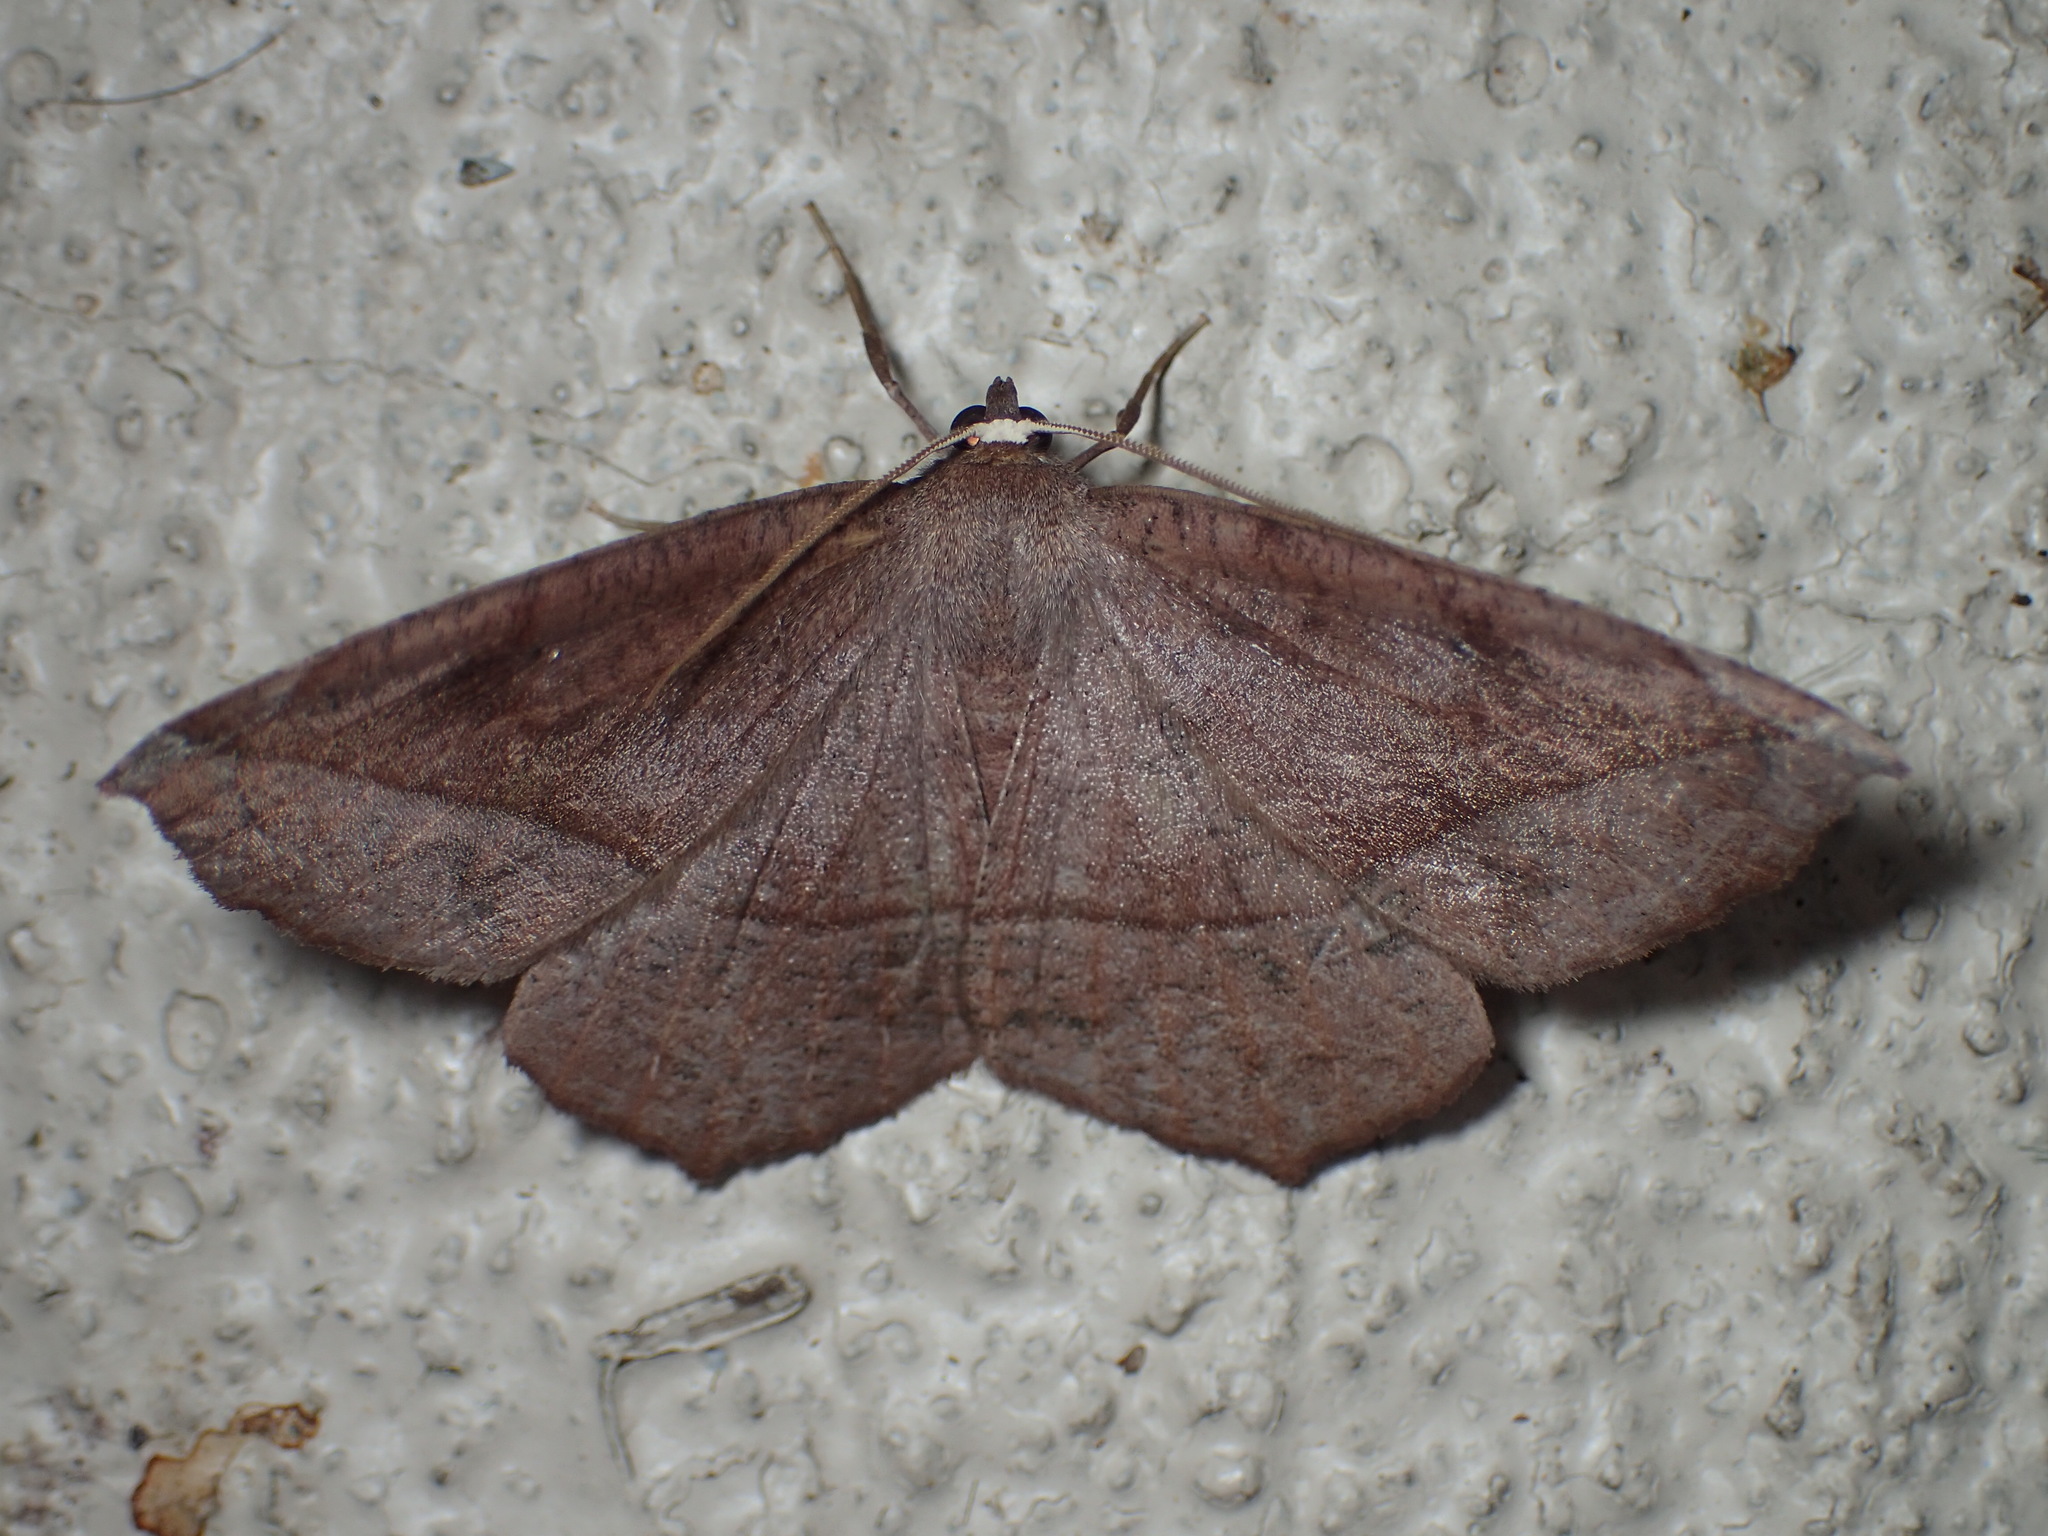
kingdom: Animalia
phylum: Arthropoda
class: Insecta
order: Lepidoptera
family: Geometridae
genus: Eutrapela
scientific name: Eutrapela clemataria
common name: Curved-toothed geometer
